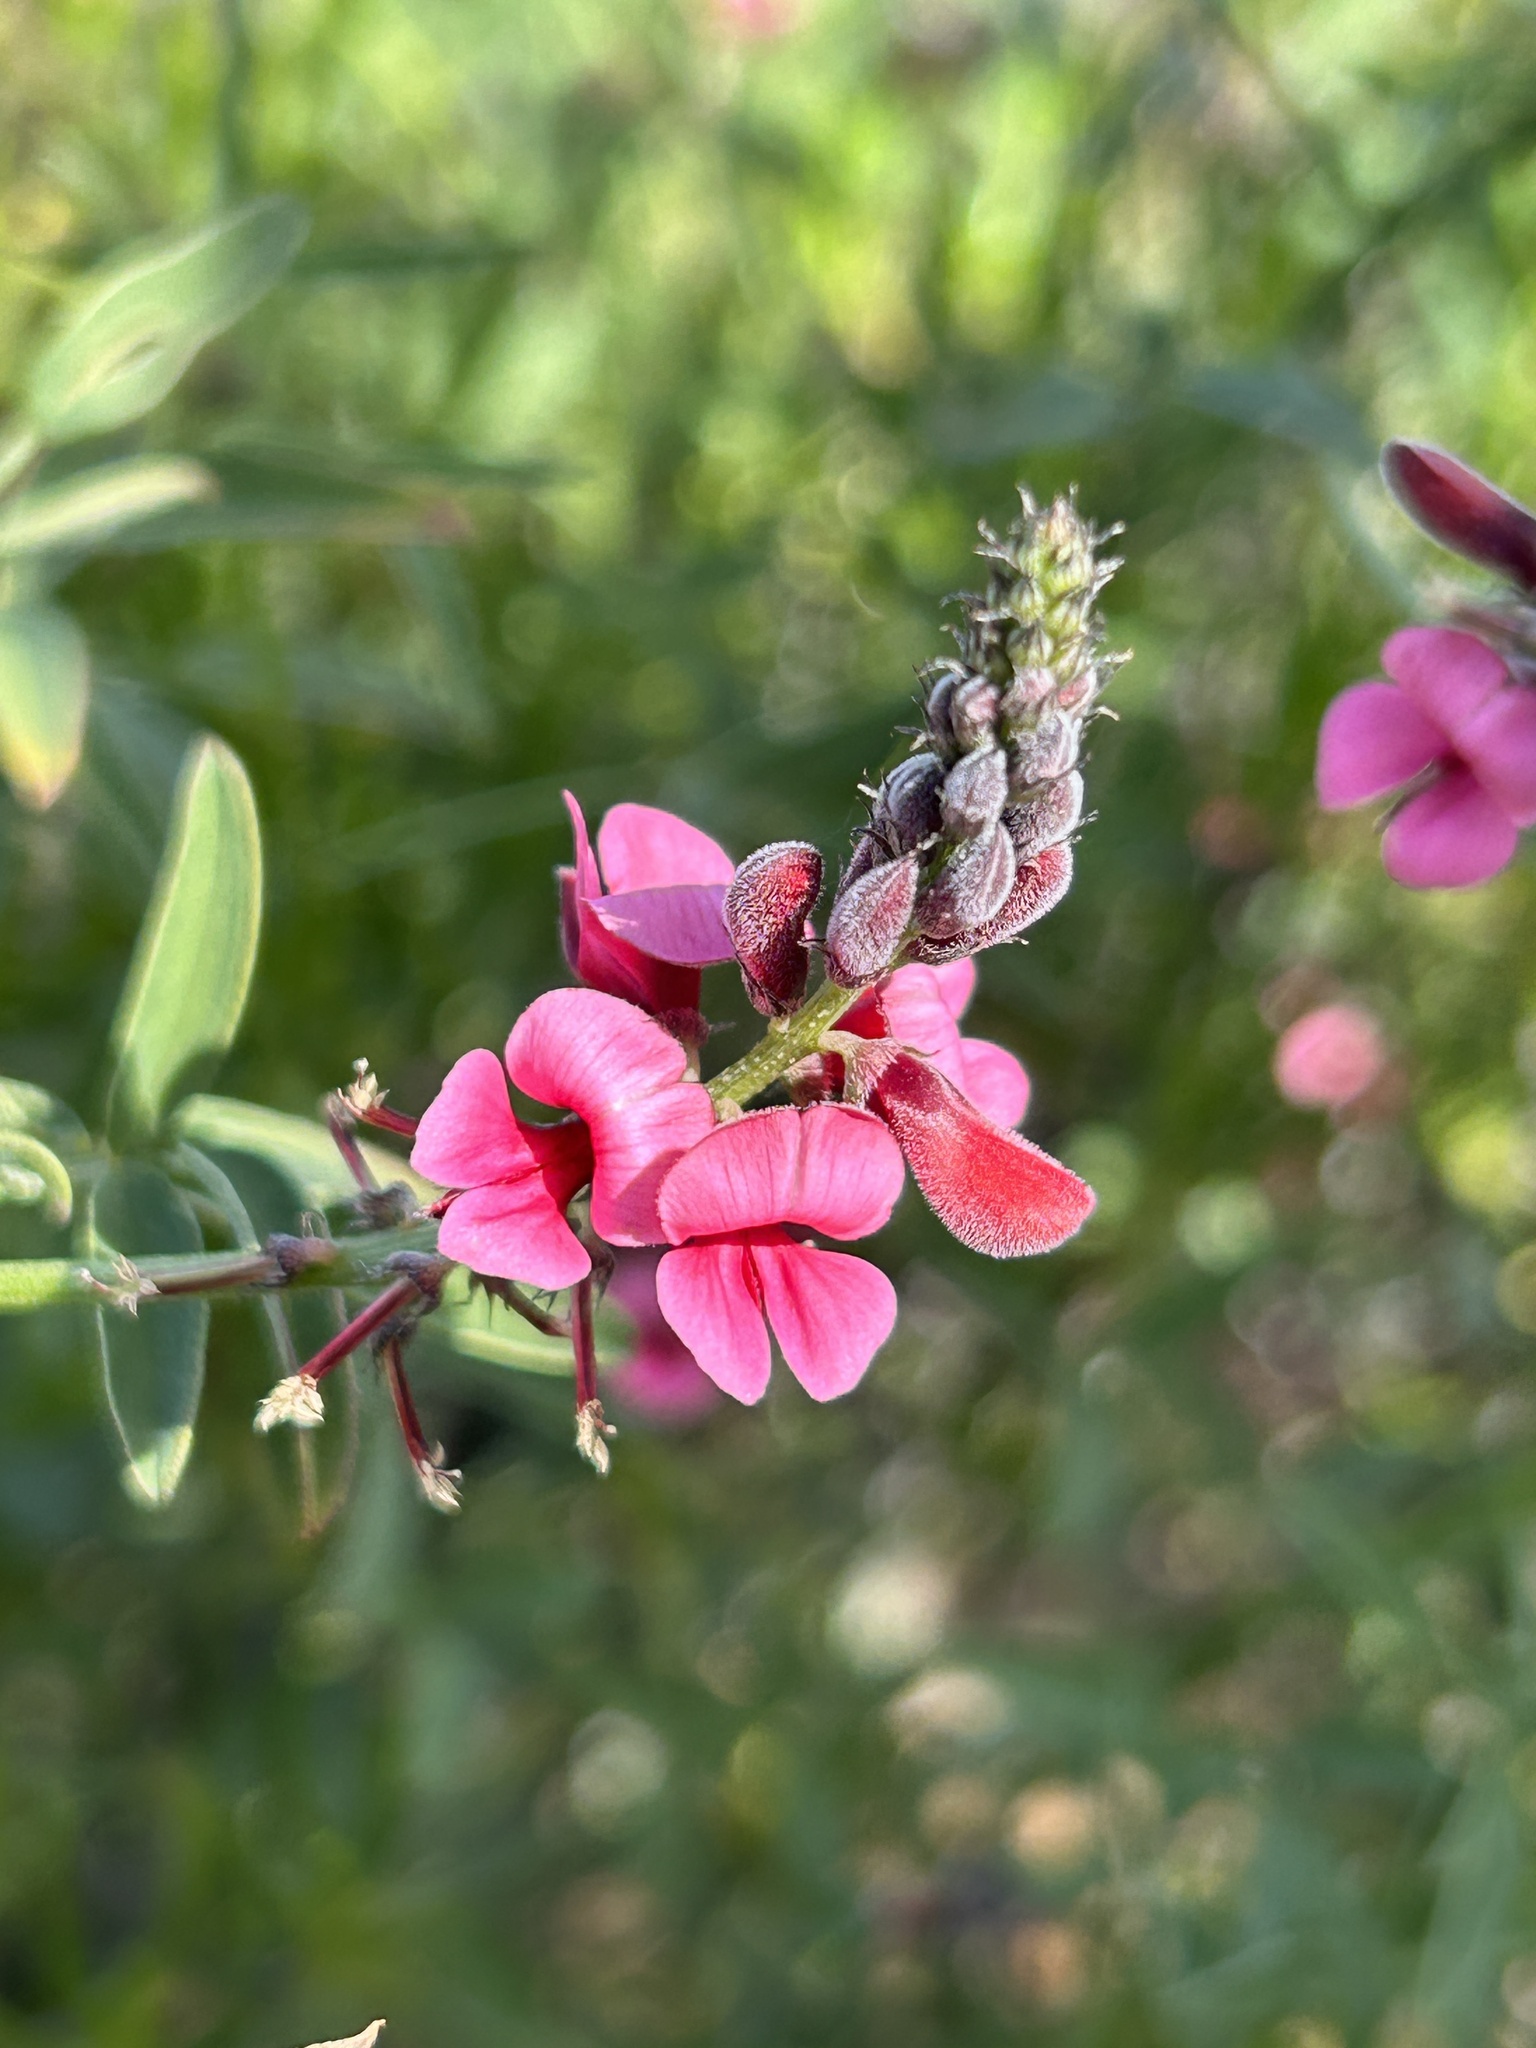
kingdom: Plantae
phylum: Tracheophyta
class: Magnoliopsida
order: Fabales
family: Fabaceae
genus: Indigofera
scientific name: Indigofera heterophylla
